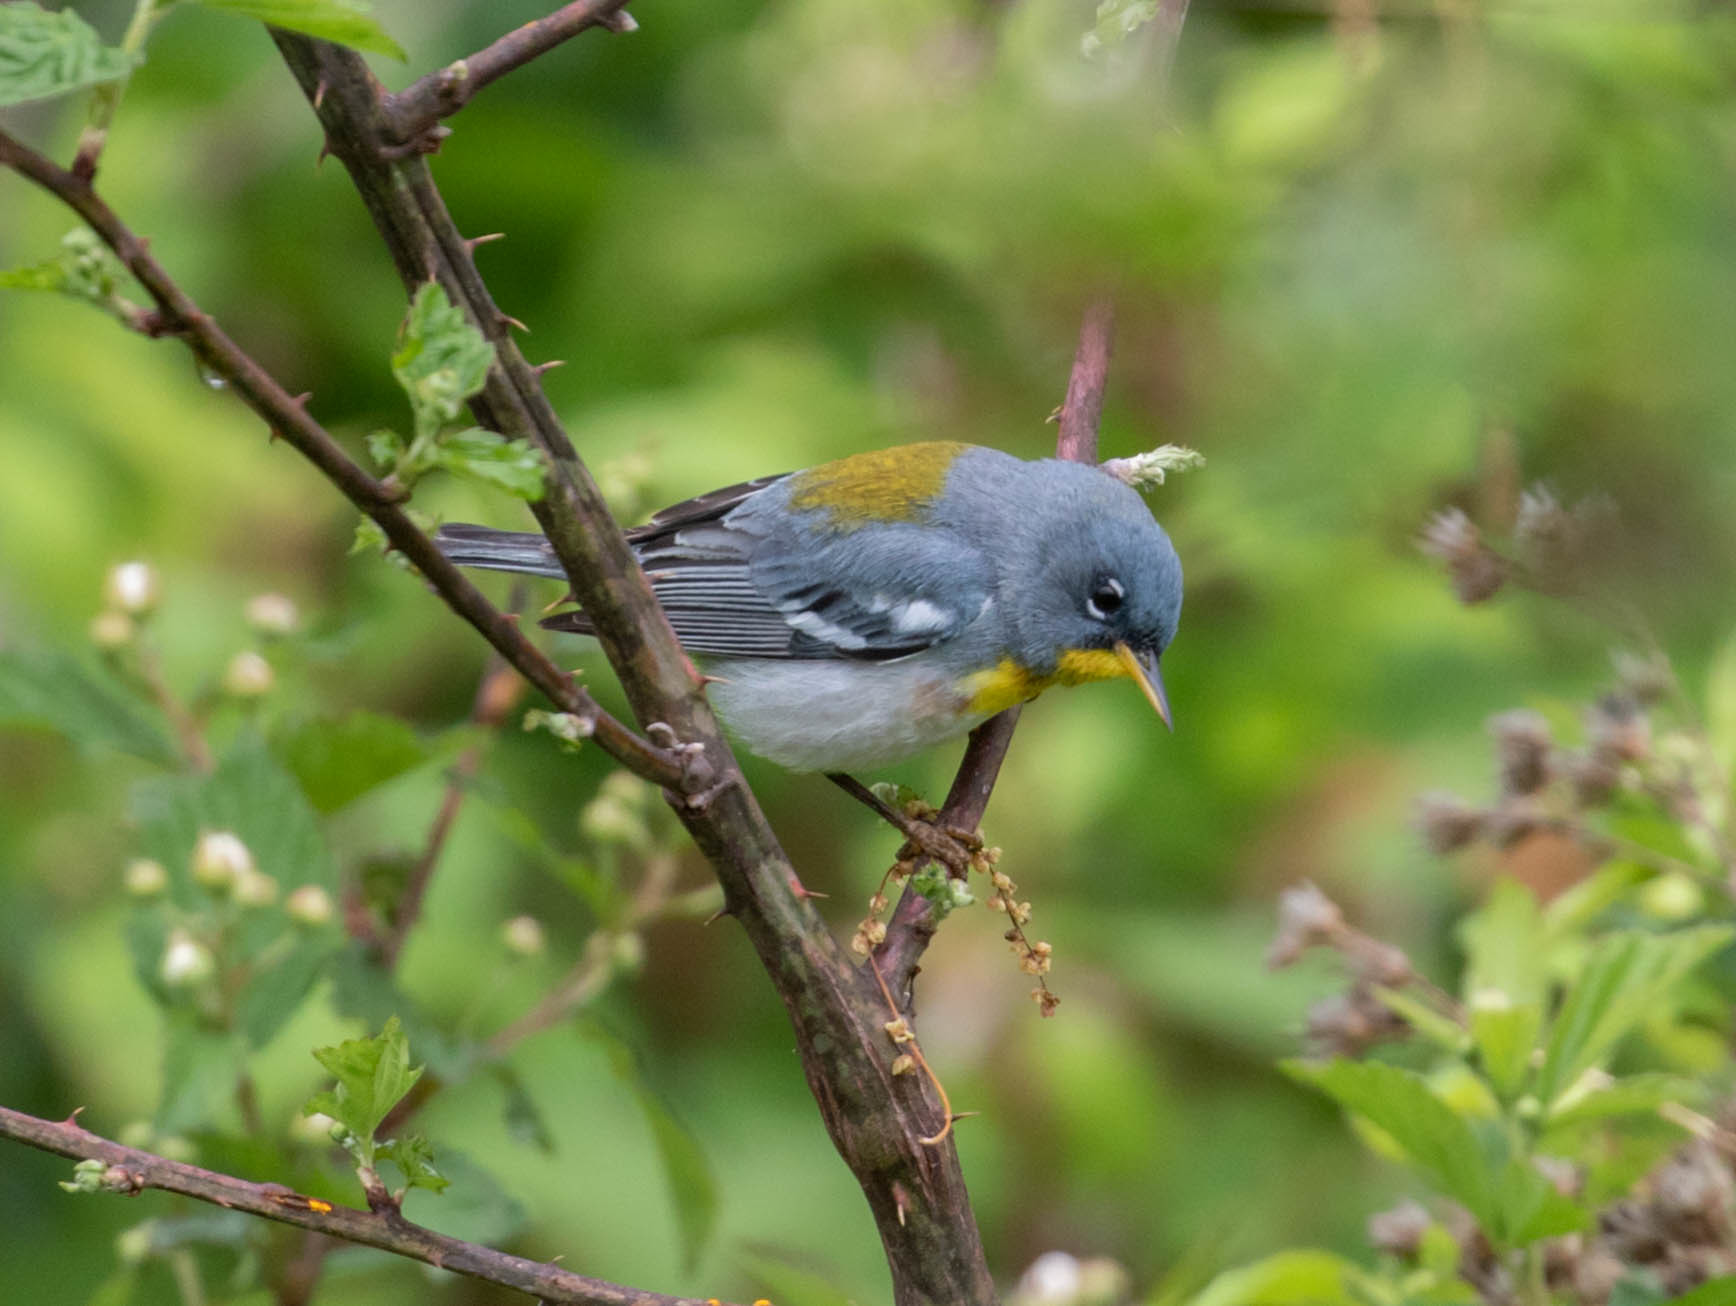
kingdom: Animalia
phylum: Chordata
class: Aves
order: Passeriformes
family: Parulidae
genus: Setophaga
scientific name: Setophaga americana
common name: Northern parula
